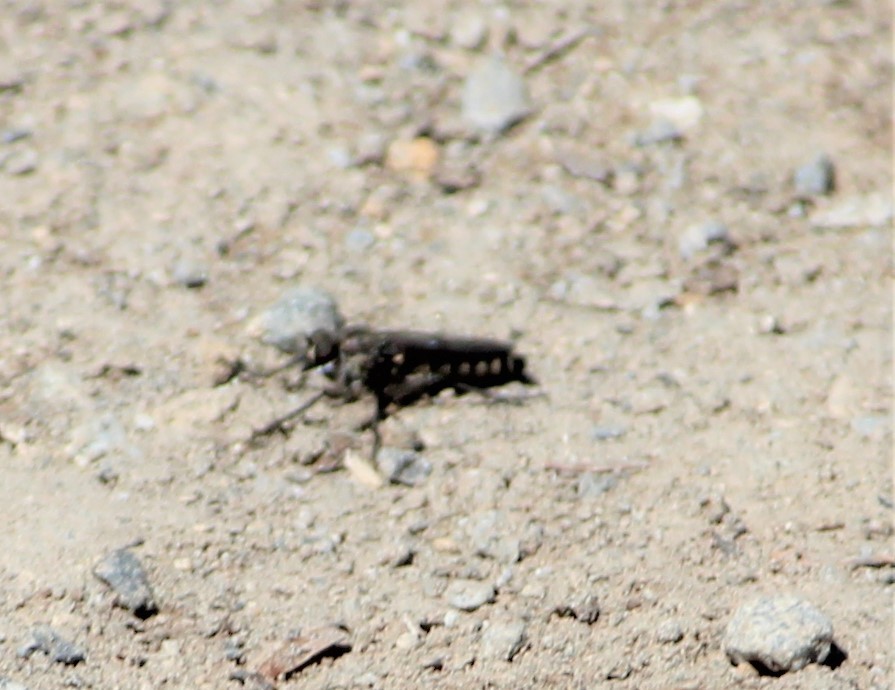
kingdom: Animalia
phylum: Arthropoda
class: Insecta
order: Diptera
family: Asilidae
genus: Lasiopogon
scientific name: Lasiopogon monticola
